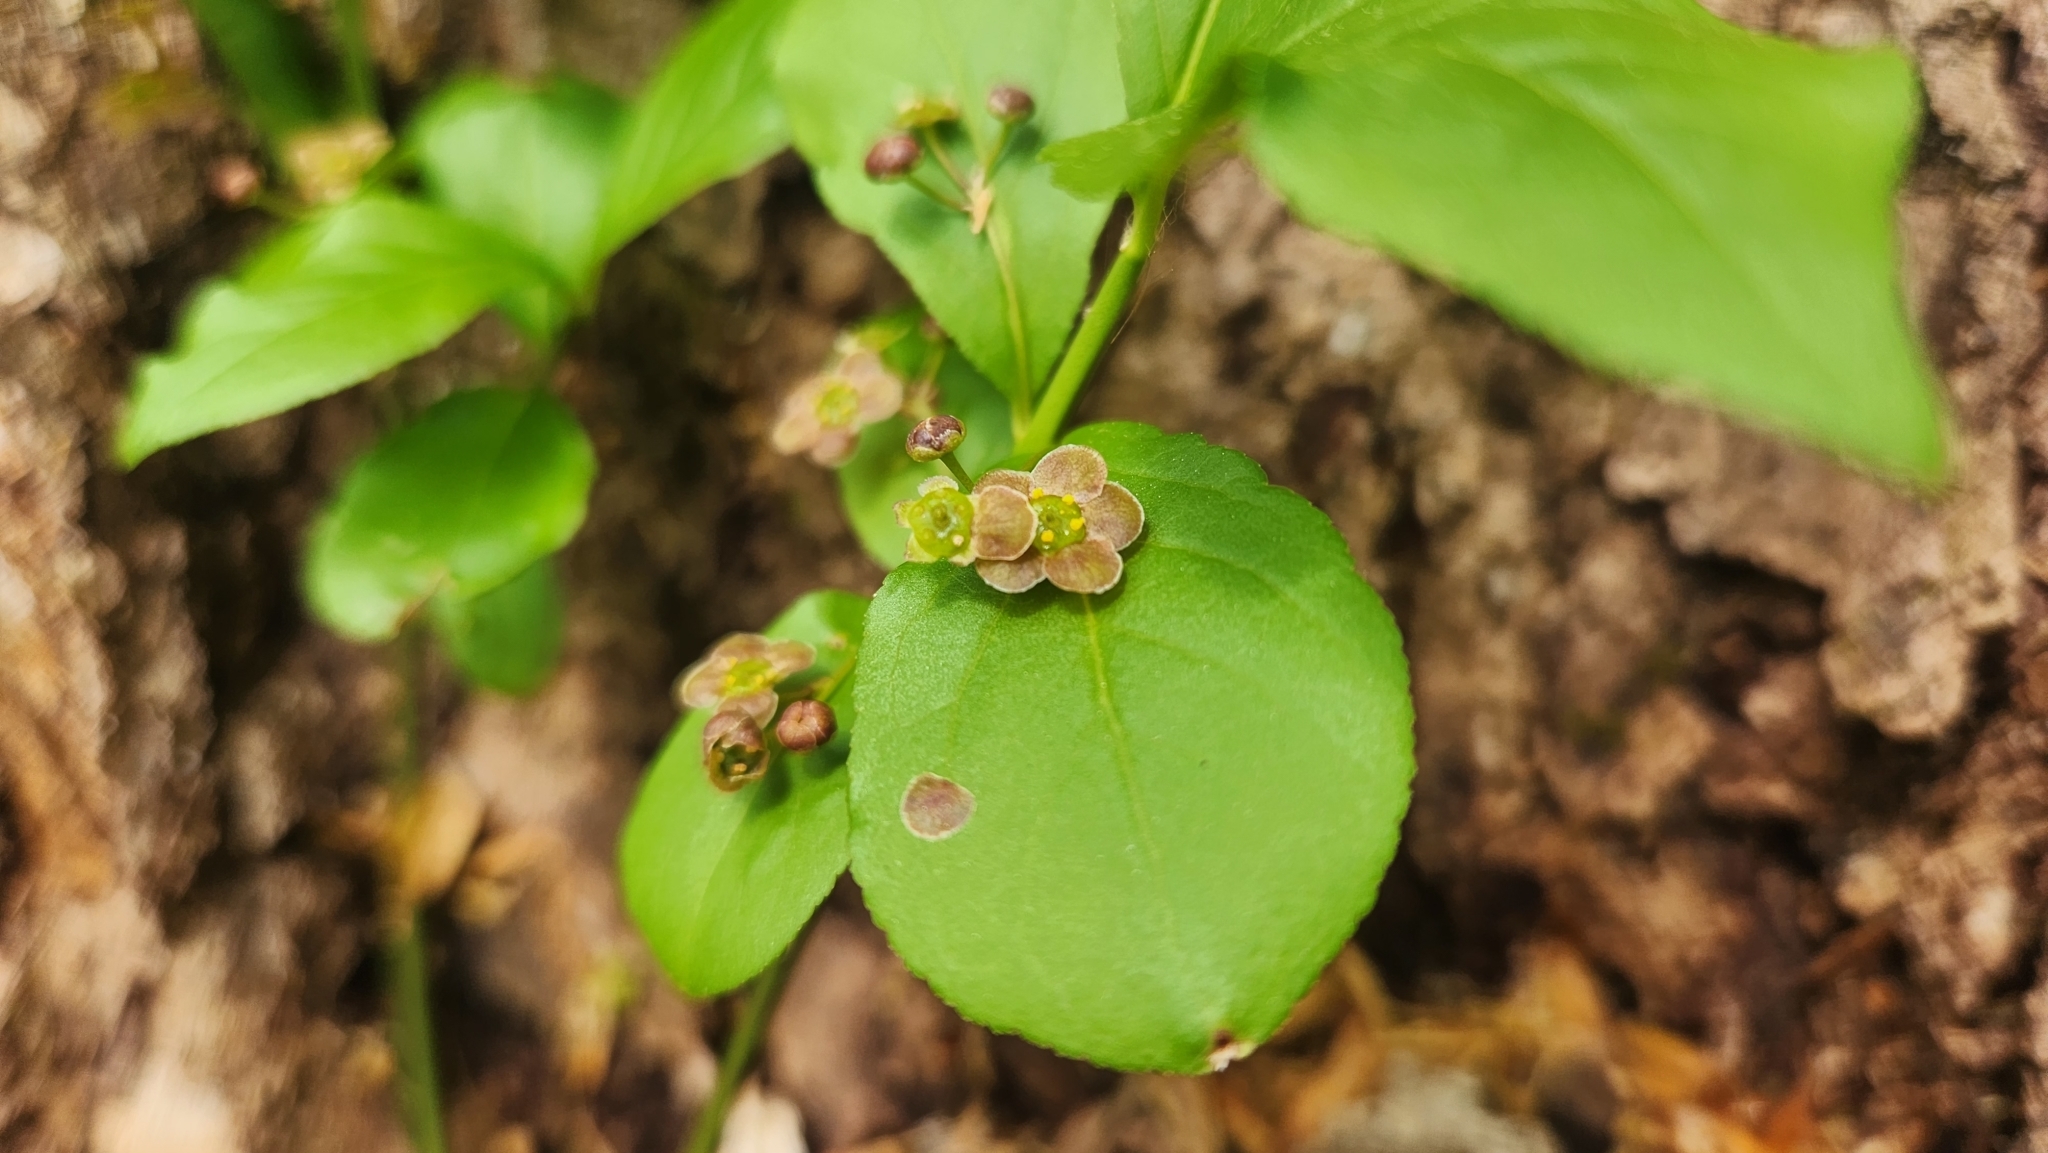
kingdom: Plantae
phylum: Tracheophyta
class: Magnoliopsida
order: Celastrales
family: Celastraceae
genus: Euonymus
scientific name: Euonymus obovatus
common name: Running strawberry-bush
